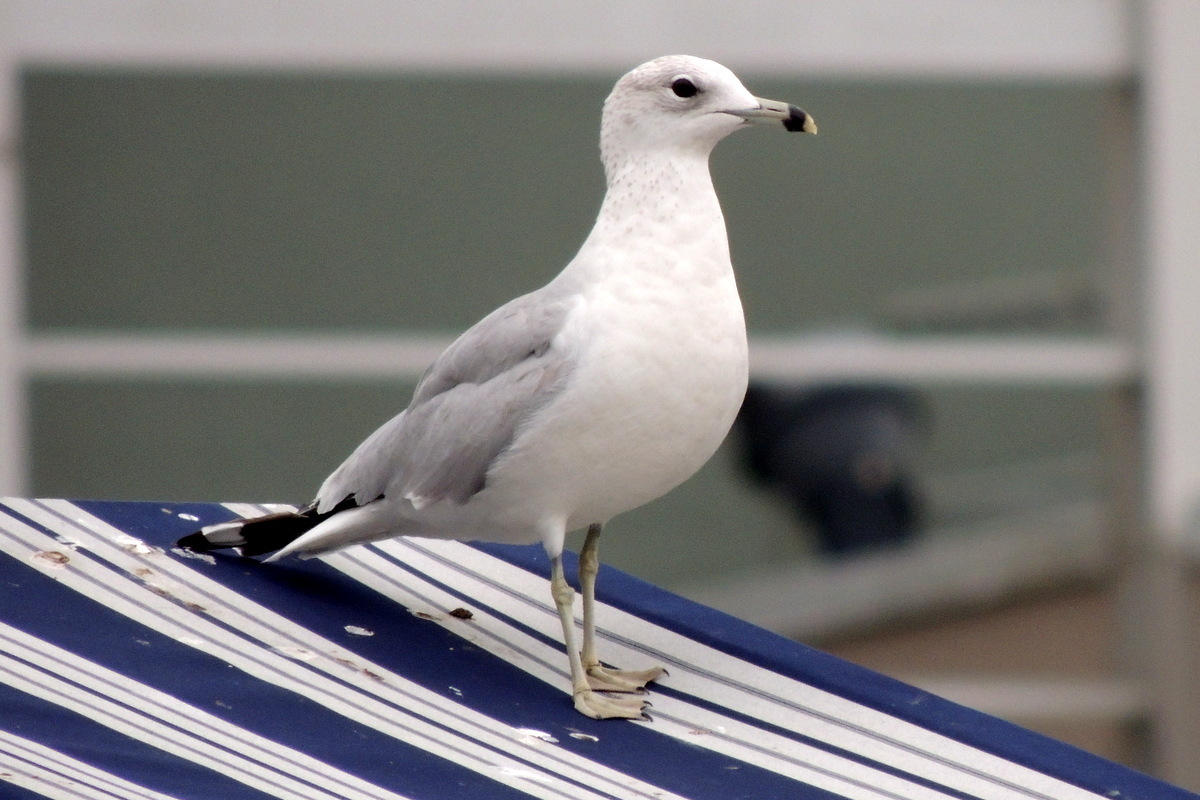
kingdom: Animalia
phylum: Chordata
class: Aves
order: Charadriiformes
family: Laridae
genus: Larus
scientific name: Larus delawarensis
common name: Ring-billed gull
